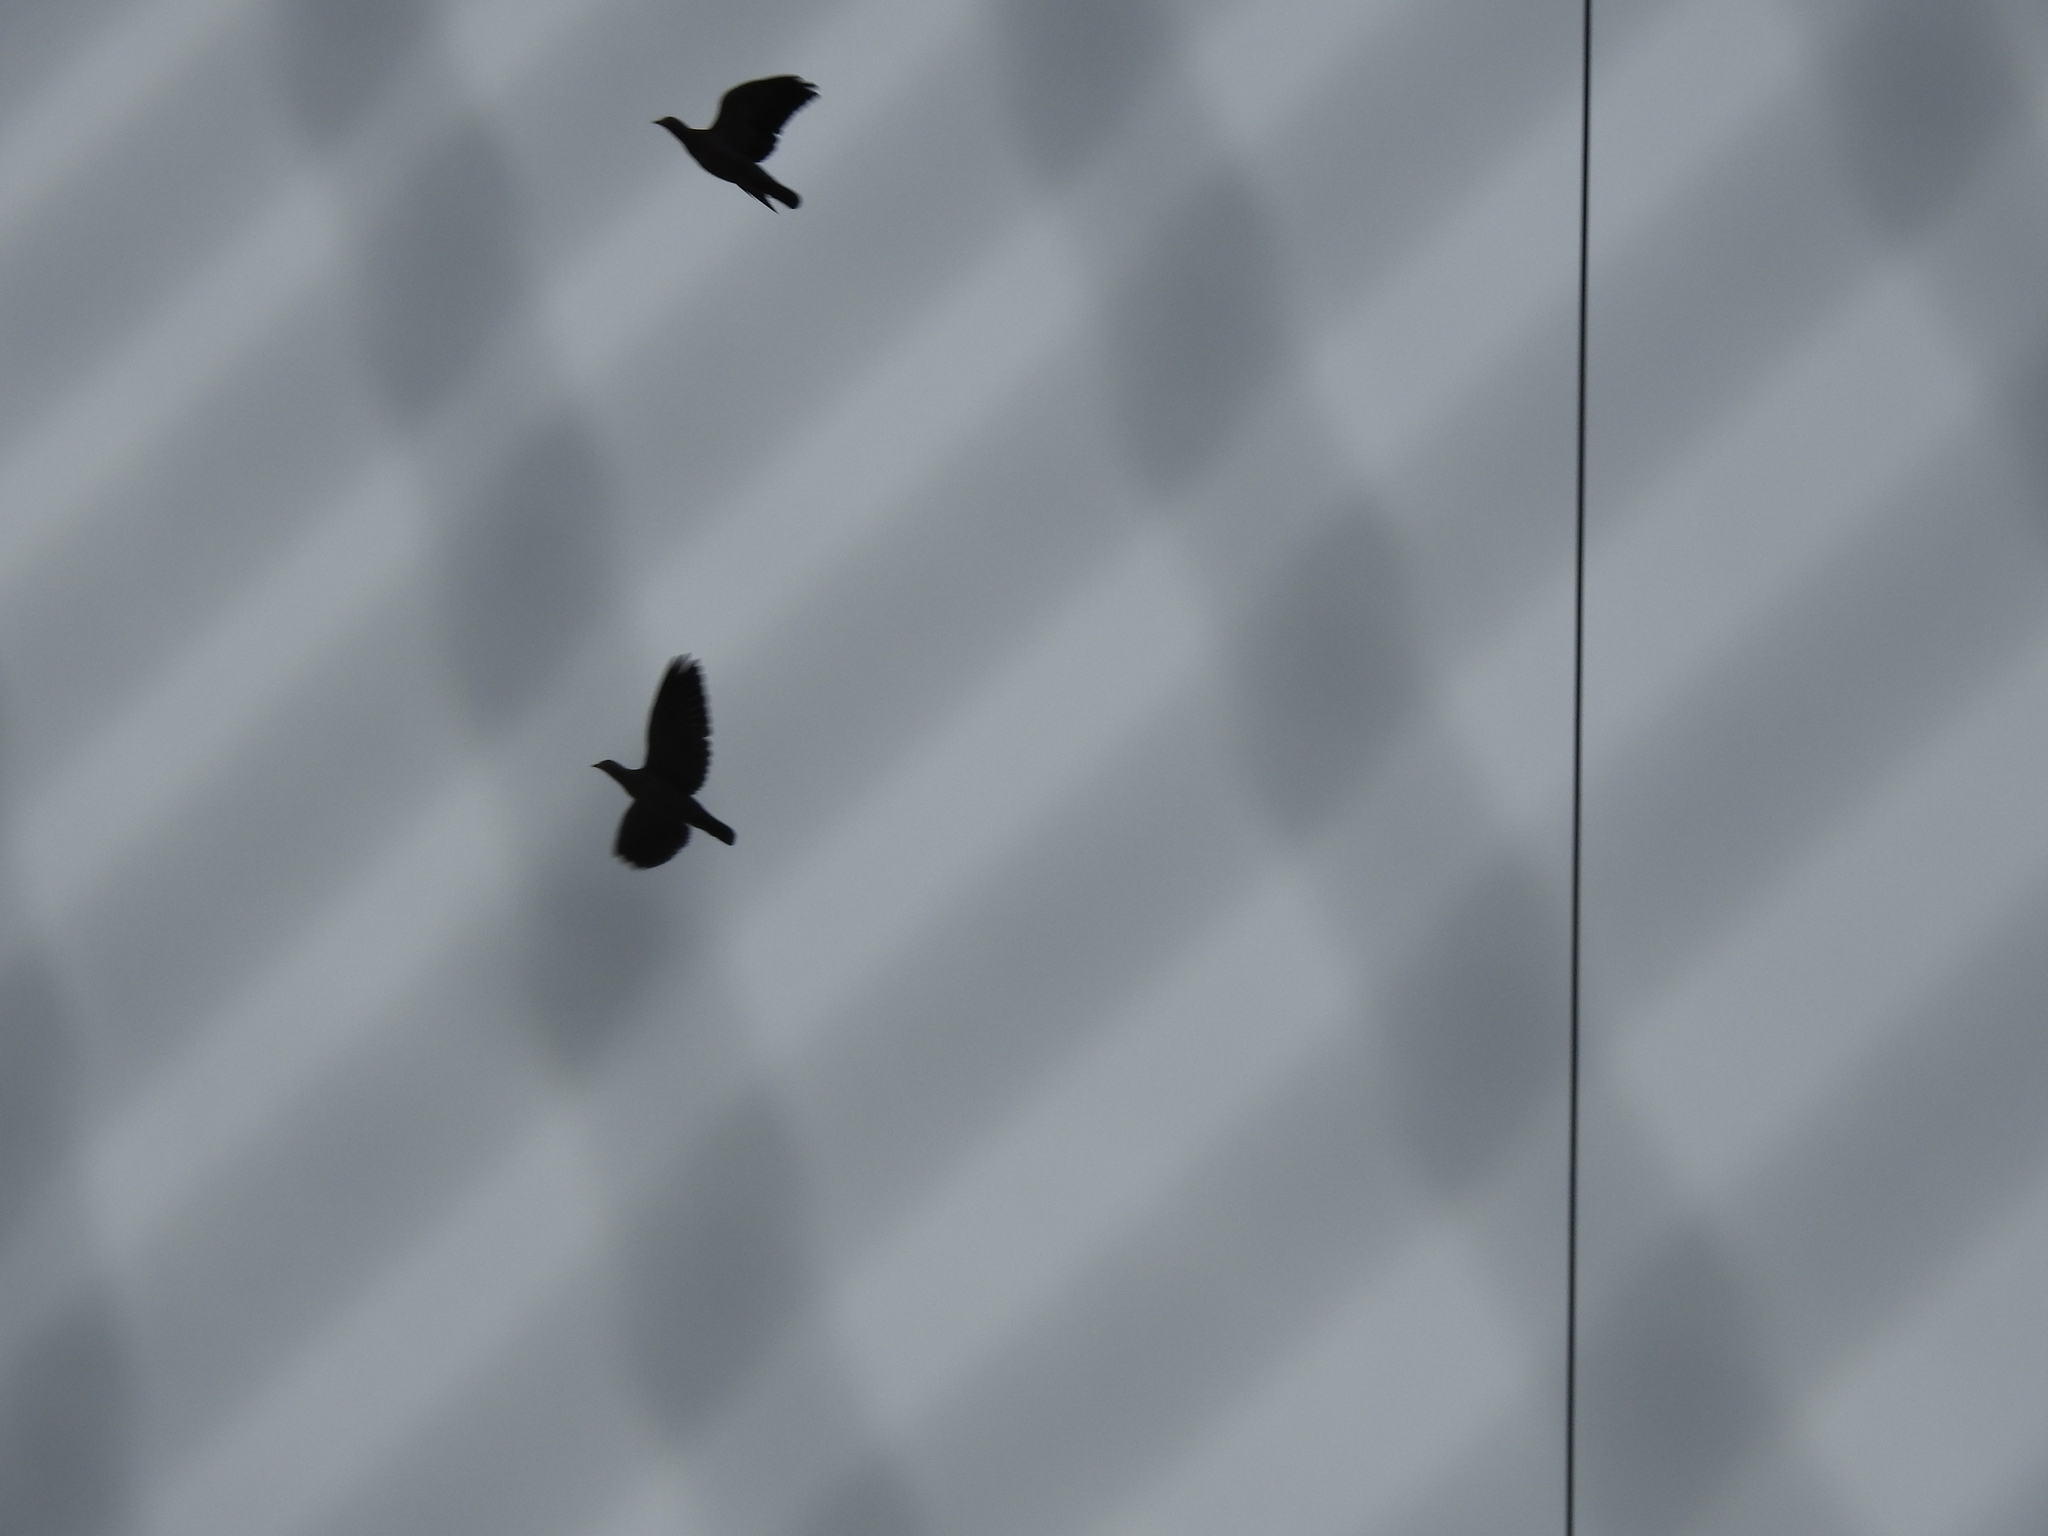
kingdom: Animalia
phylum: Chordata
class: Aves
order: Columbiformes
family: Columbidae
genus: Patagioenas
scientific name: Patagioenas picazuro
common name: Picazuro pigeon
